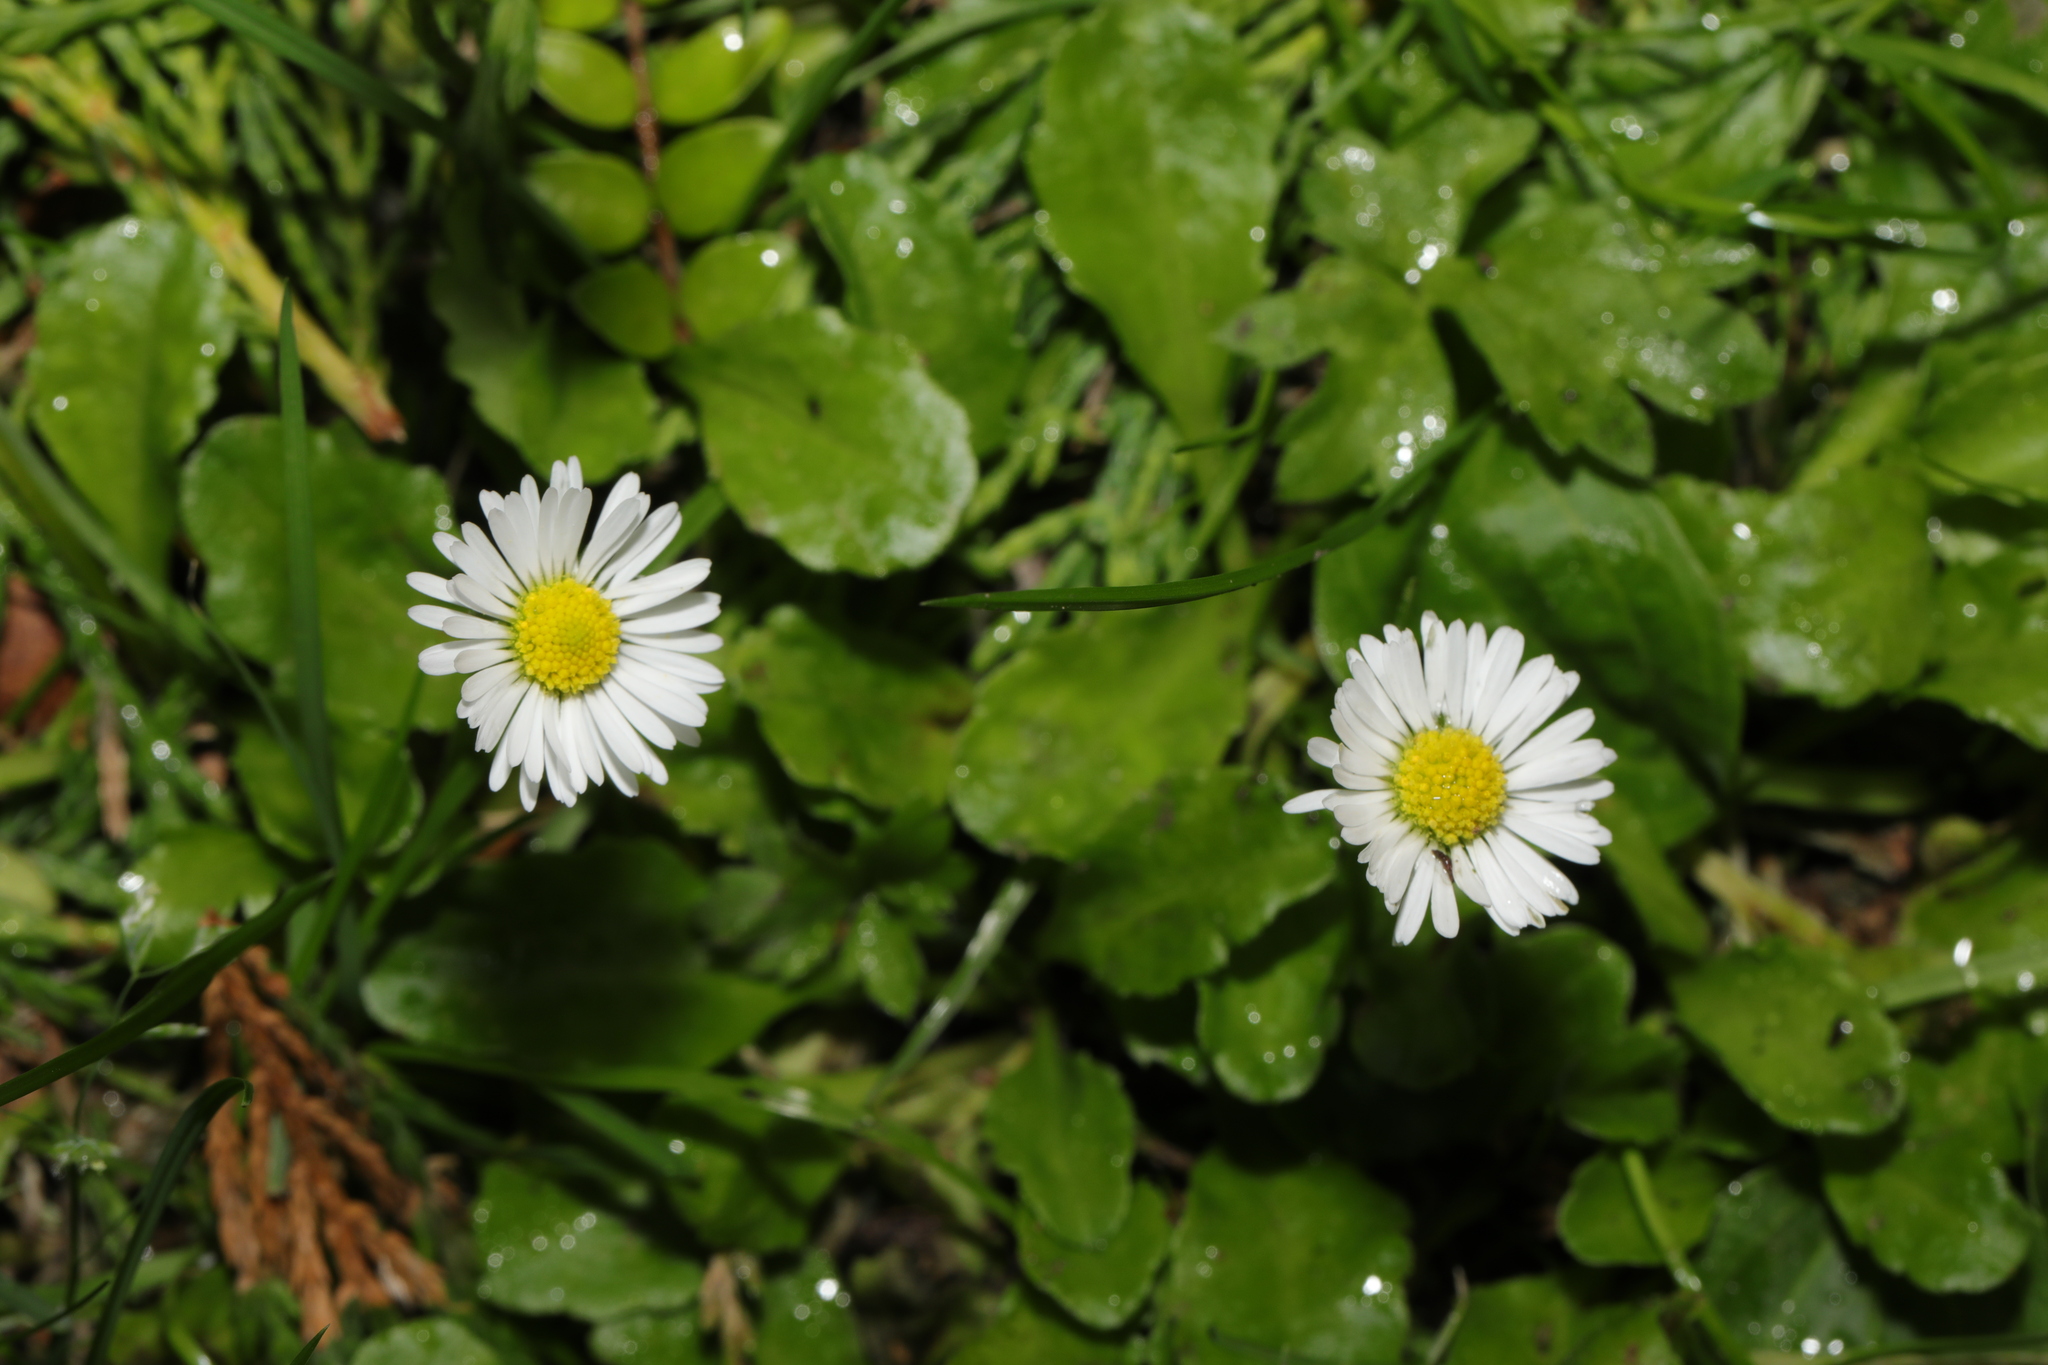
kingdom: Plantae
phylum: Tracheophyta
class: Magnoliopsida
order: Asterales
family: Asteraceae
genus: Bellis
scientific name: Bellis perennis
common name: Lawndaisy
